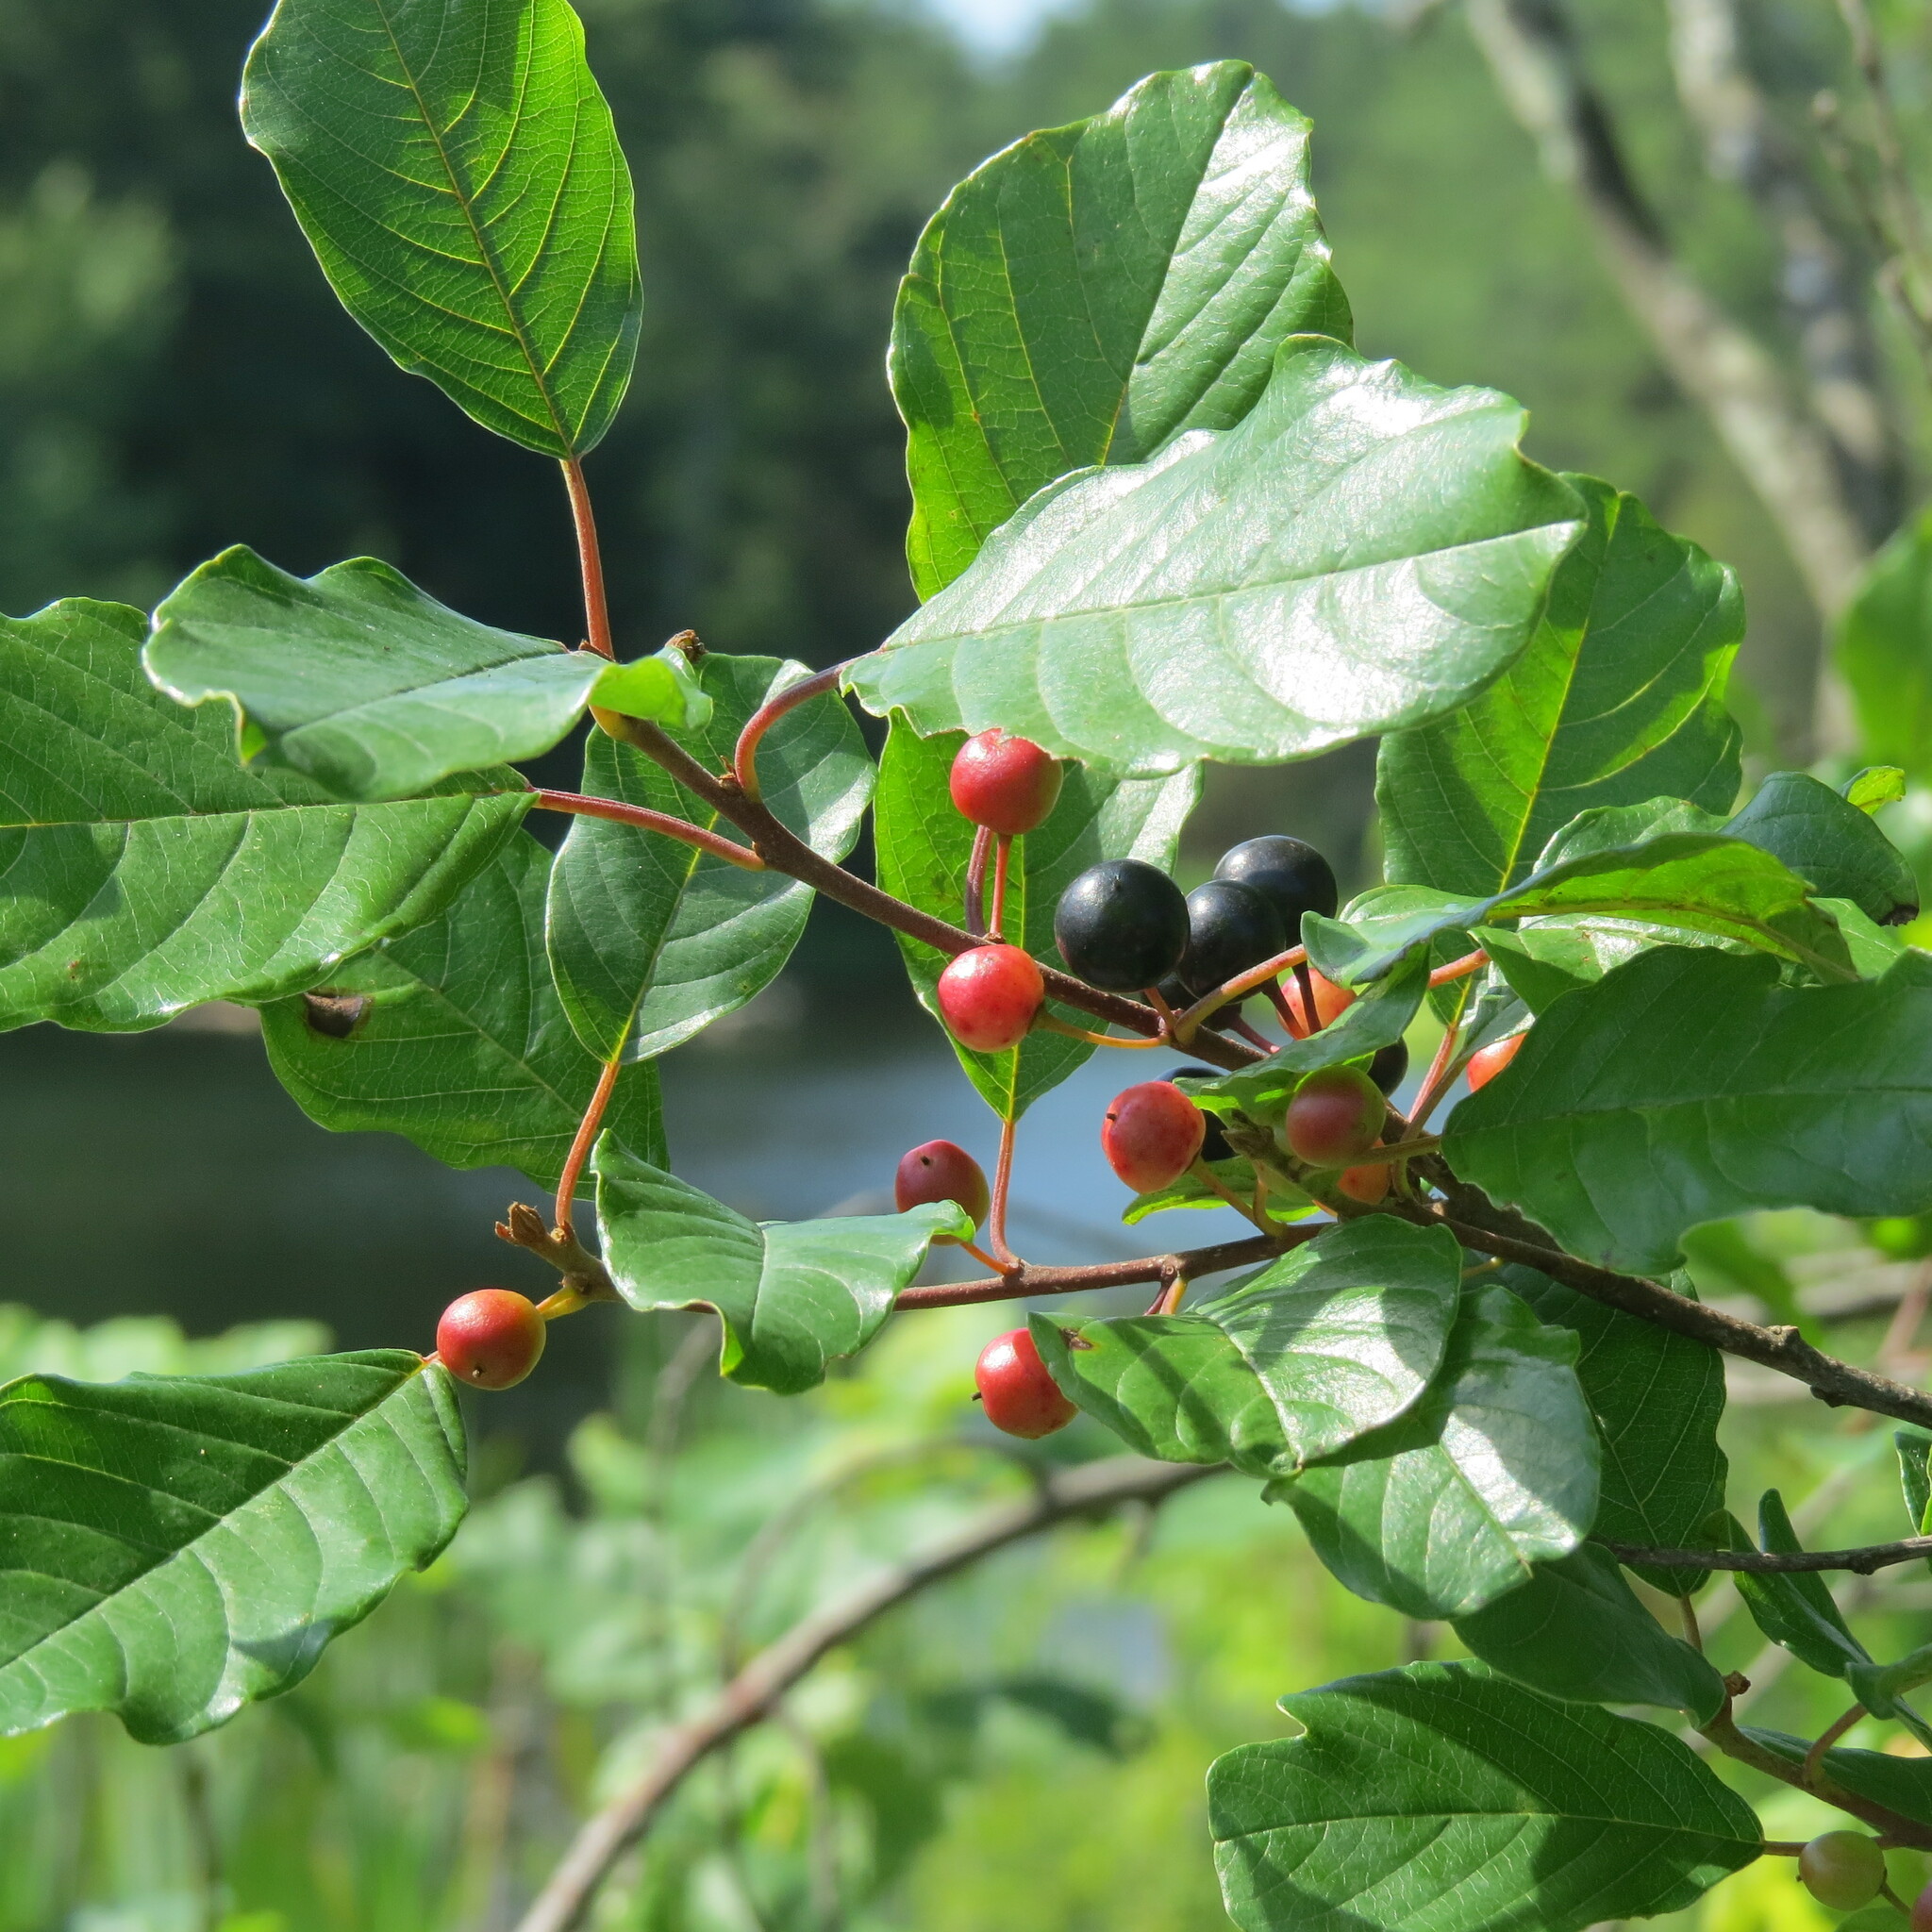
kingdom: Plantae
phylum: Tracheophyta
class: Magnoliopsida
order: Rosales
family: Rhamnaceae
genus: Frangula
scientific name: Frangula alnus
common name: Alder buckthorn
